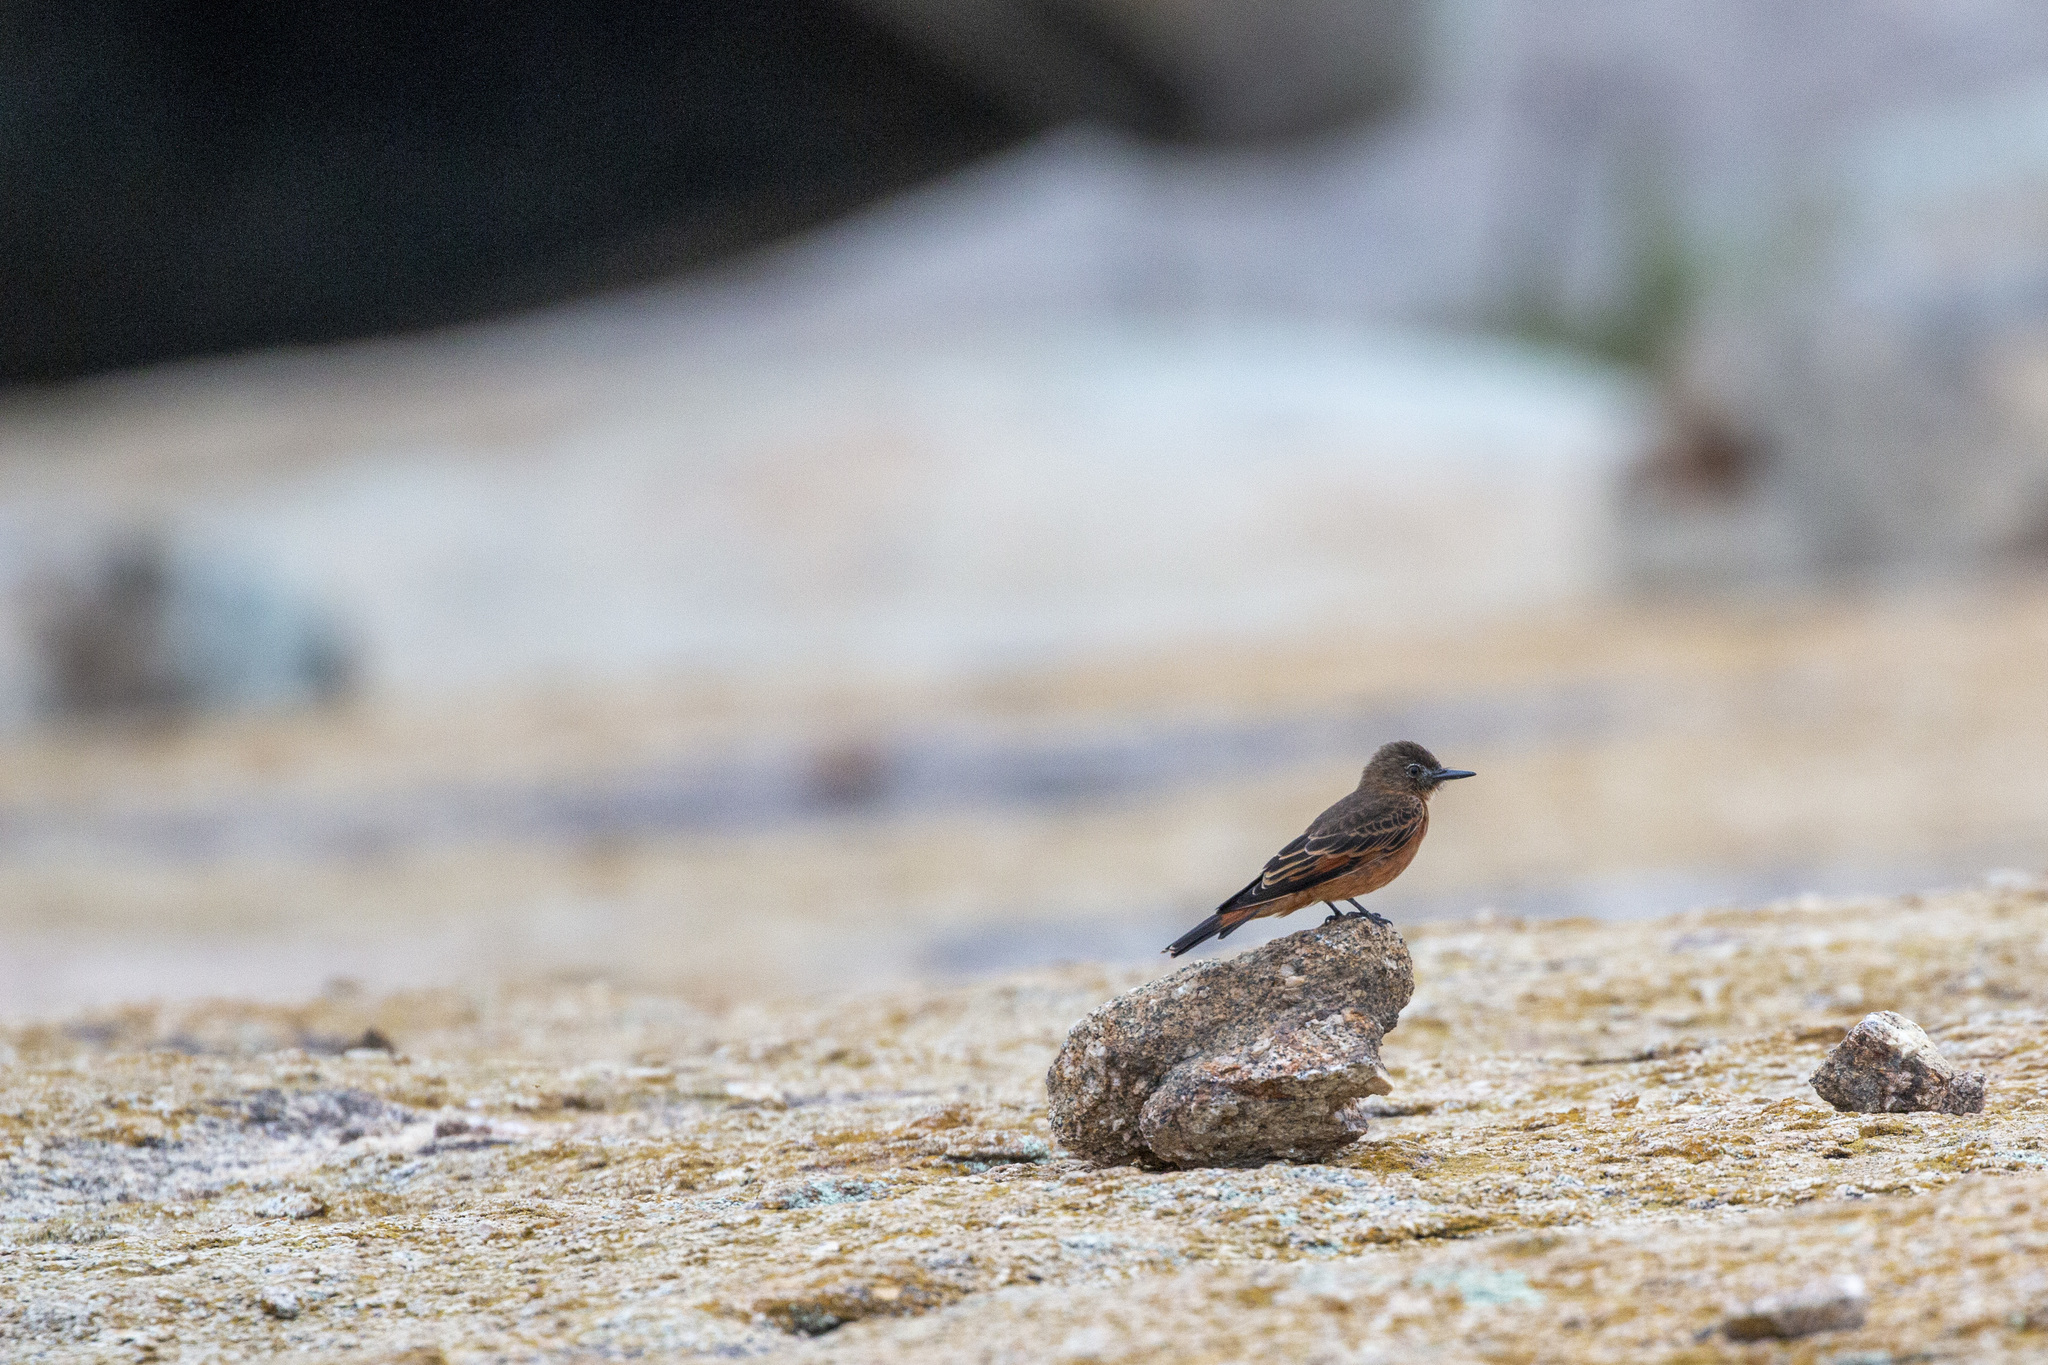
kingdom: Animalia
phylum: Chordata
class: Aves
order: Passeriformes
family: Tyrannidae
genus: Hirundinea
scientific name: Hirundinea ferruginea
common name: Cliff flycatcher
